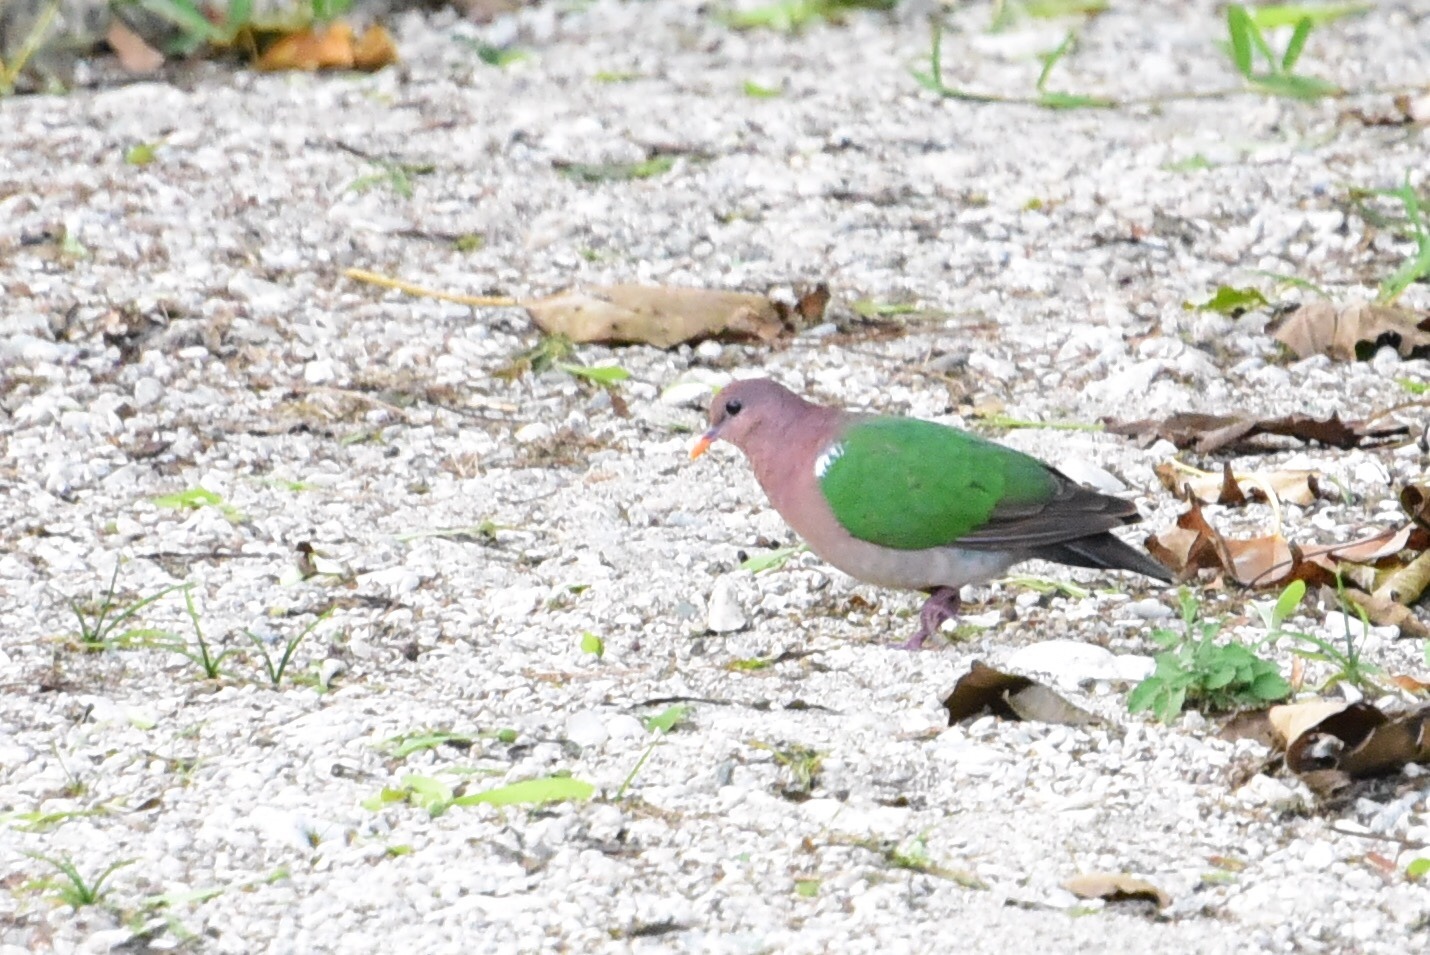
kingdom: Animalia
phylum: Chordata
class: Aves
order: Columbiformes
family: Columbidae
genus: Chalcophaps
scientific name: Chalcophaps longirostris
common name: Pacific emerald dove
